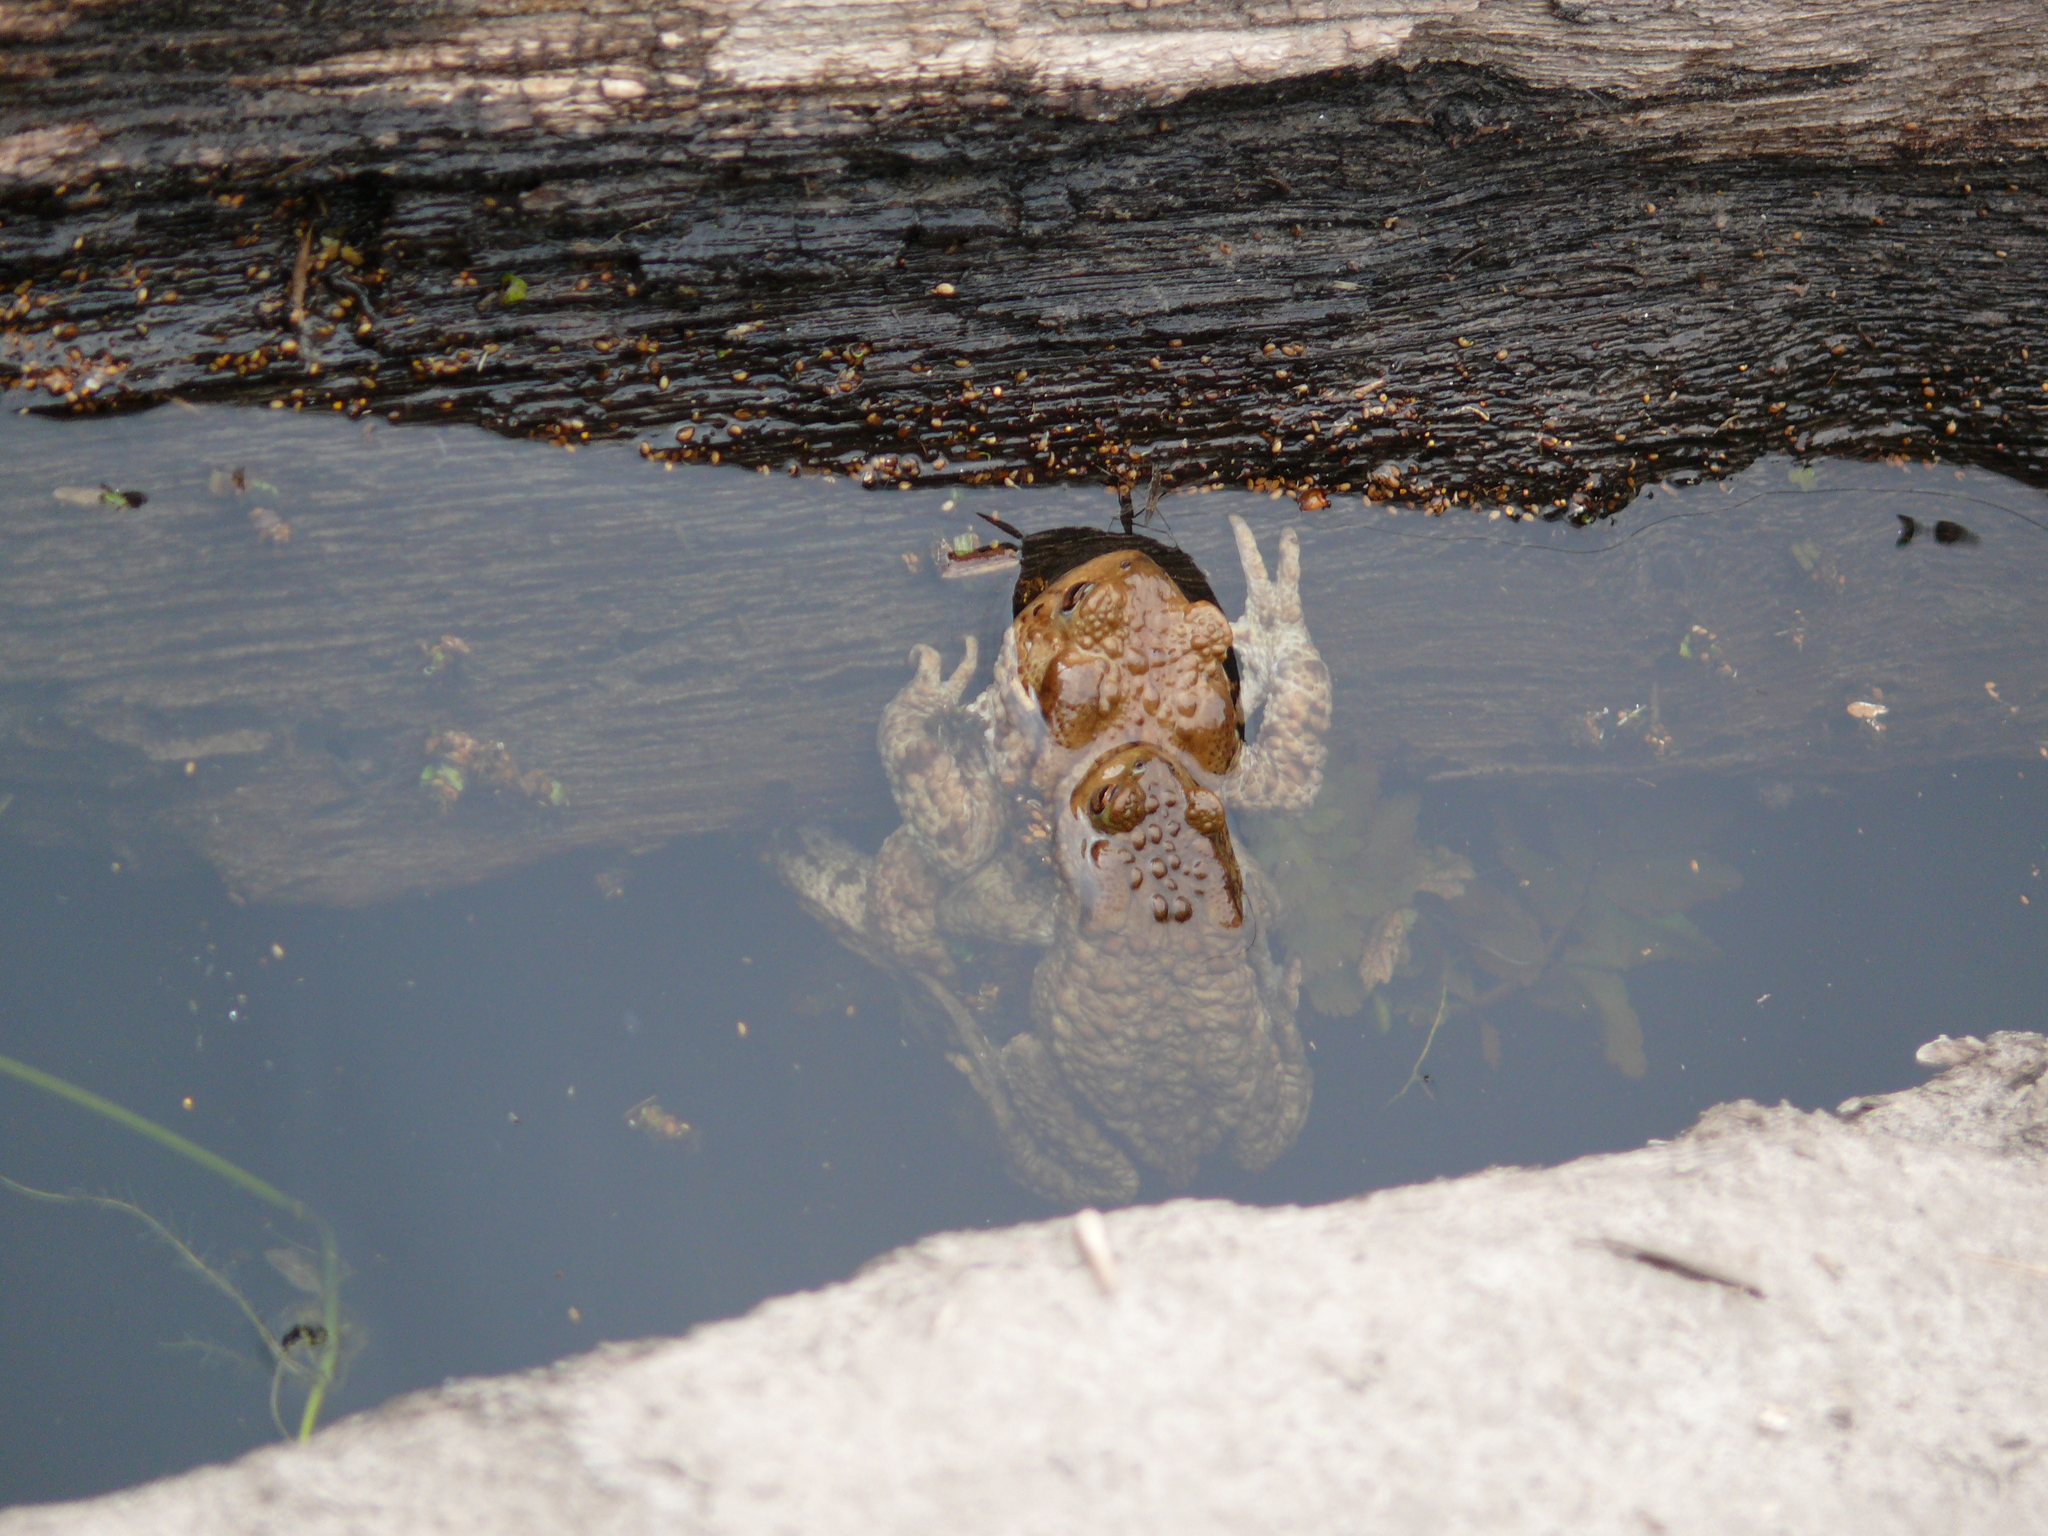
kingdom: Animalia
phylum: Chordata
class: Amphibia
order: Anura
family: Bufonidae
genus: Bufo
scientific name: Bufo bufo
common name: Common toad
